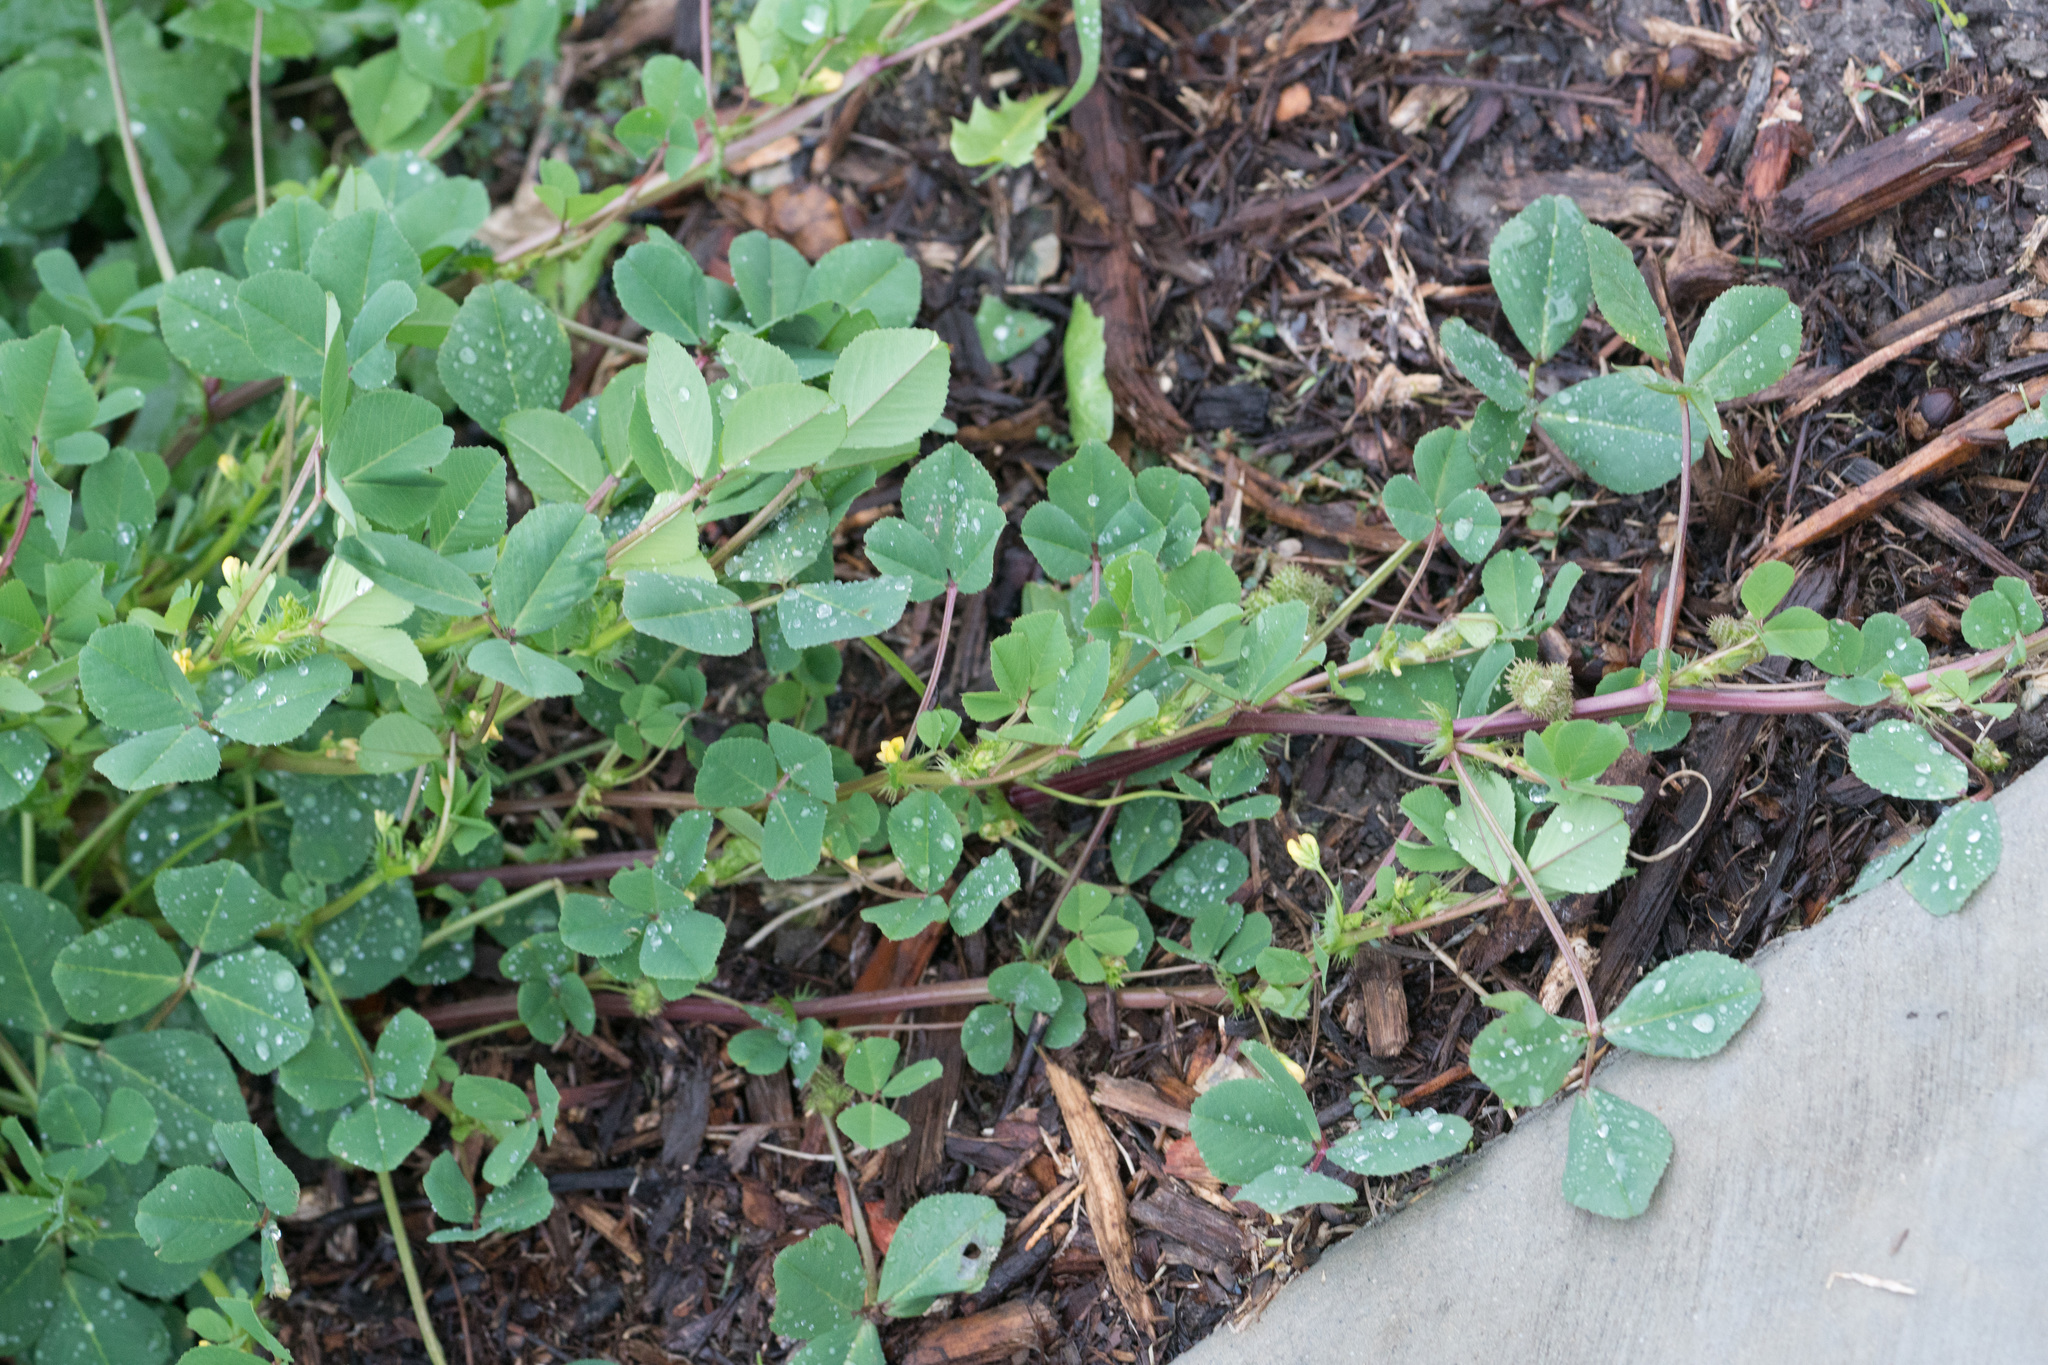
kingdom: Plantae
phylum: Tracheophyta
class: Magnoliopsida
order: Fabales
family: Fabaceae
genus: Medicago
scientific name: Medicago polymorpha
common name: Burclover
